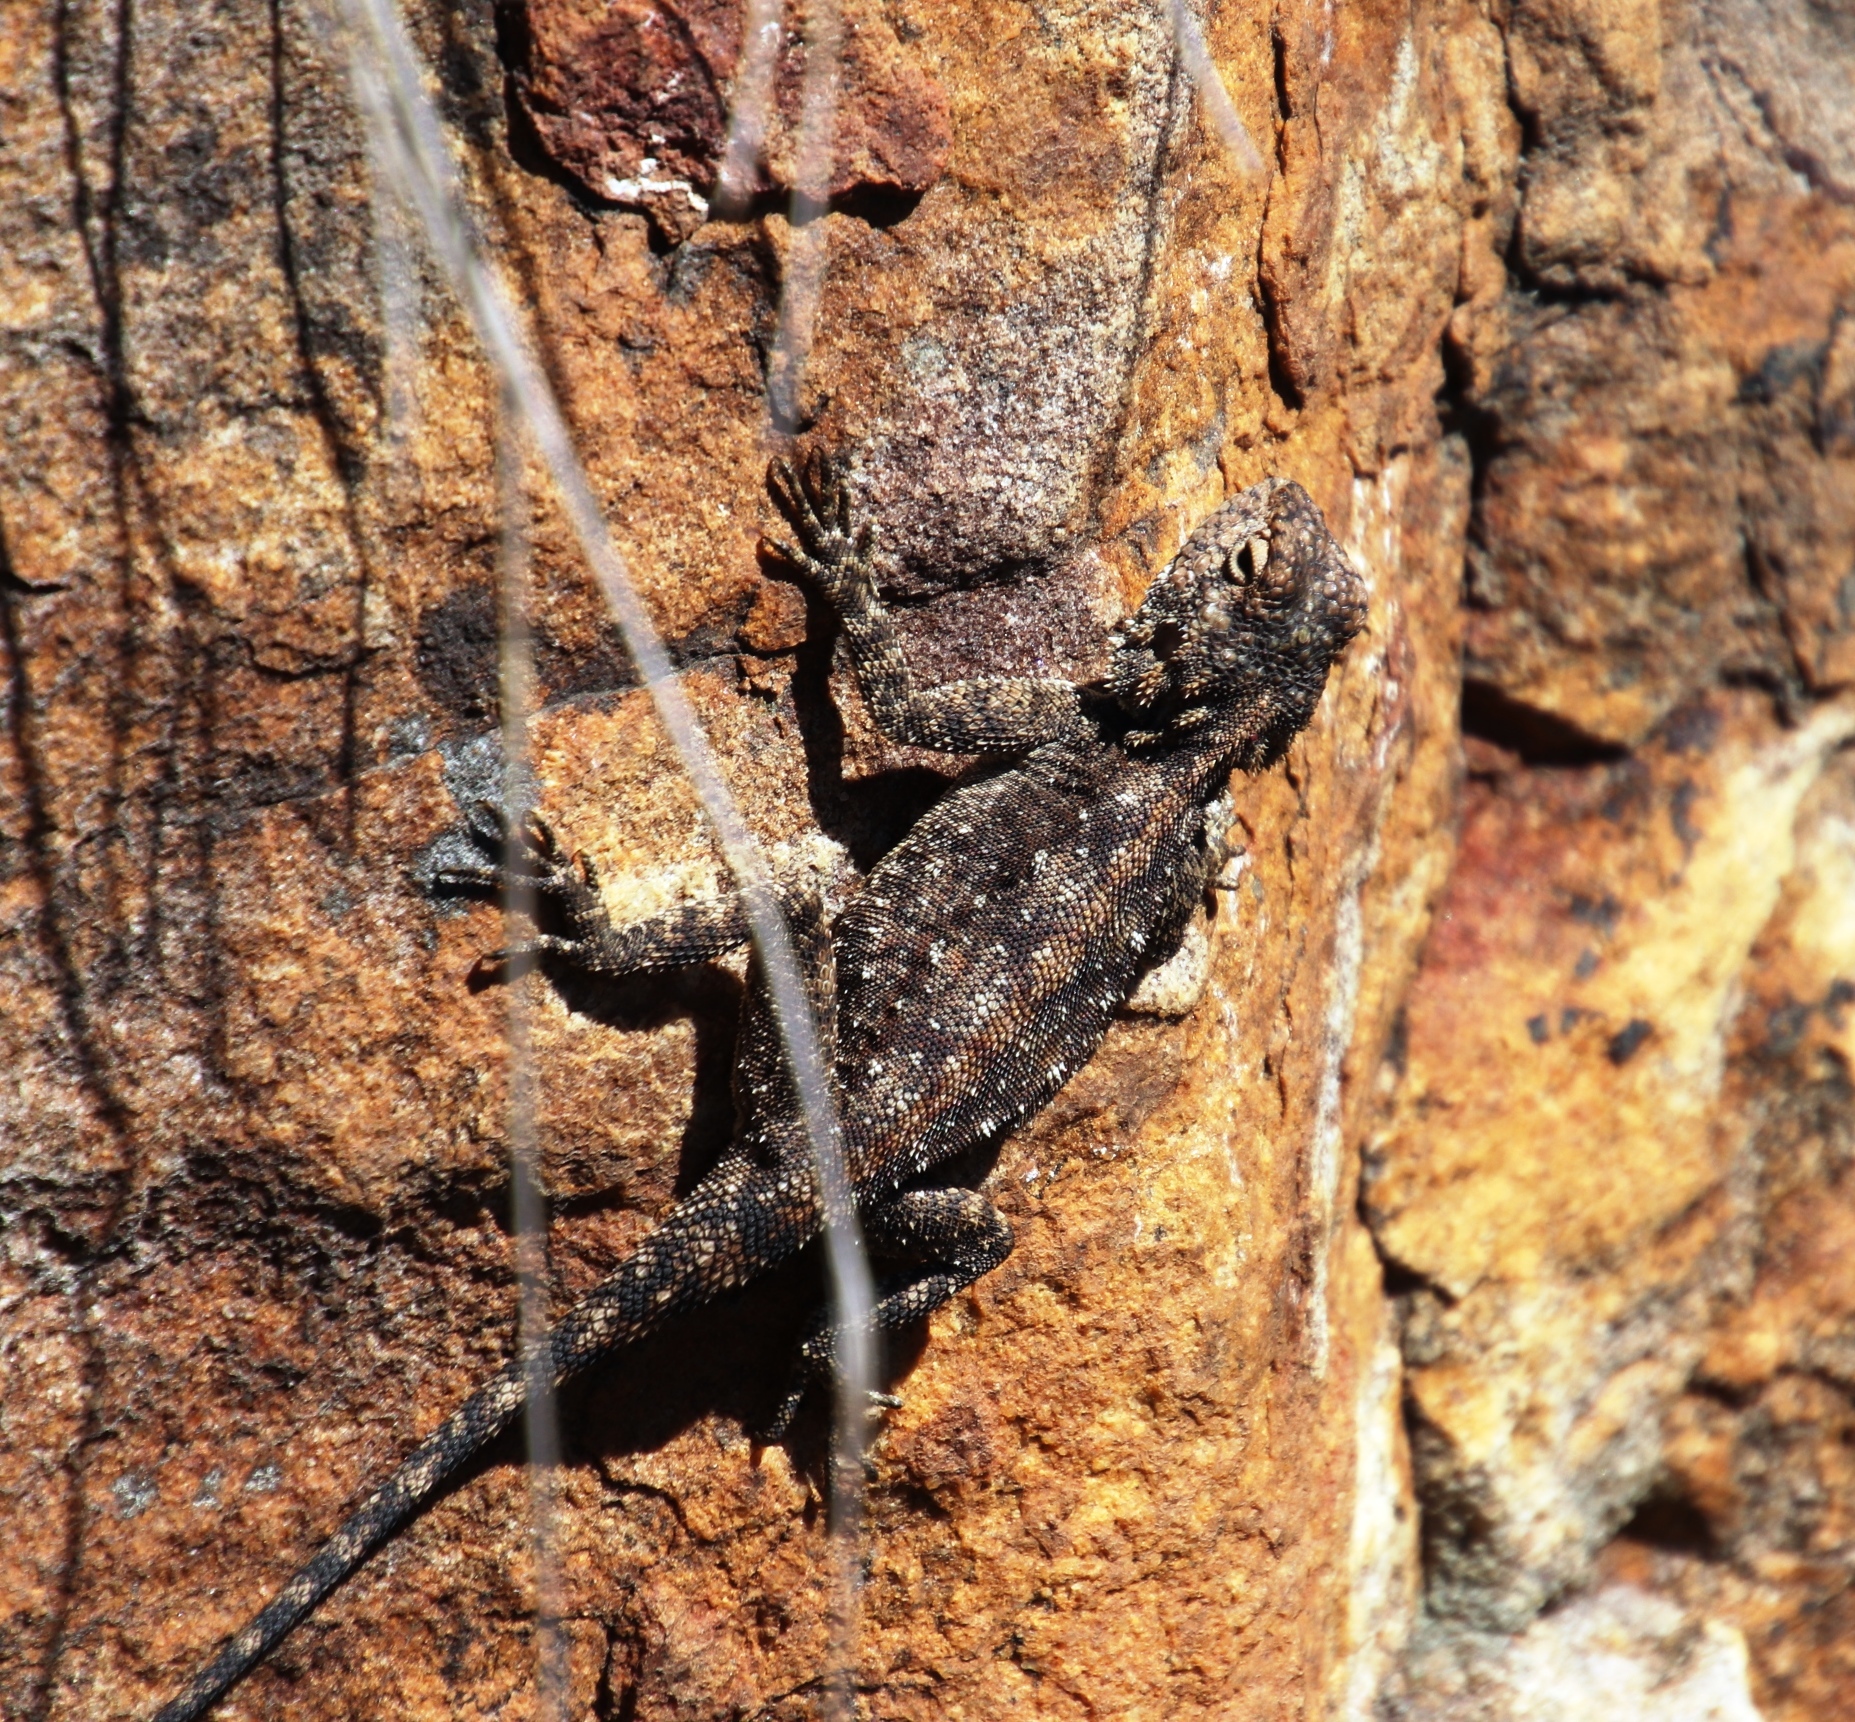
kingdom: Animalia
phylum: Chordata
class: Squamata
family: Agamidae
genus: Agama
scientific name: Agama atra
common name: Southern african rock agama
